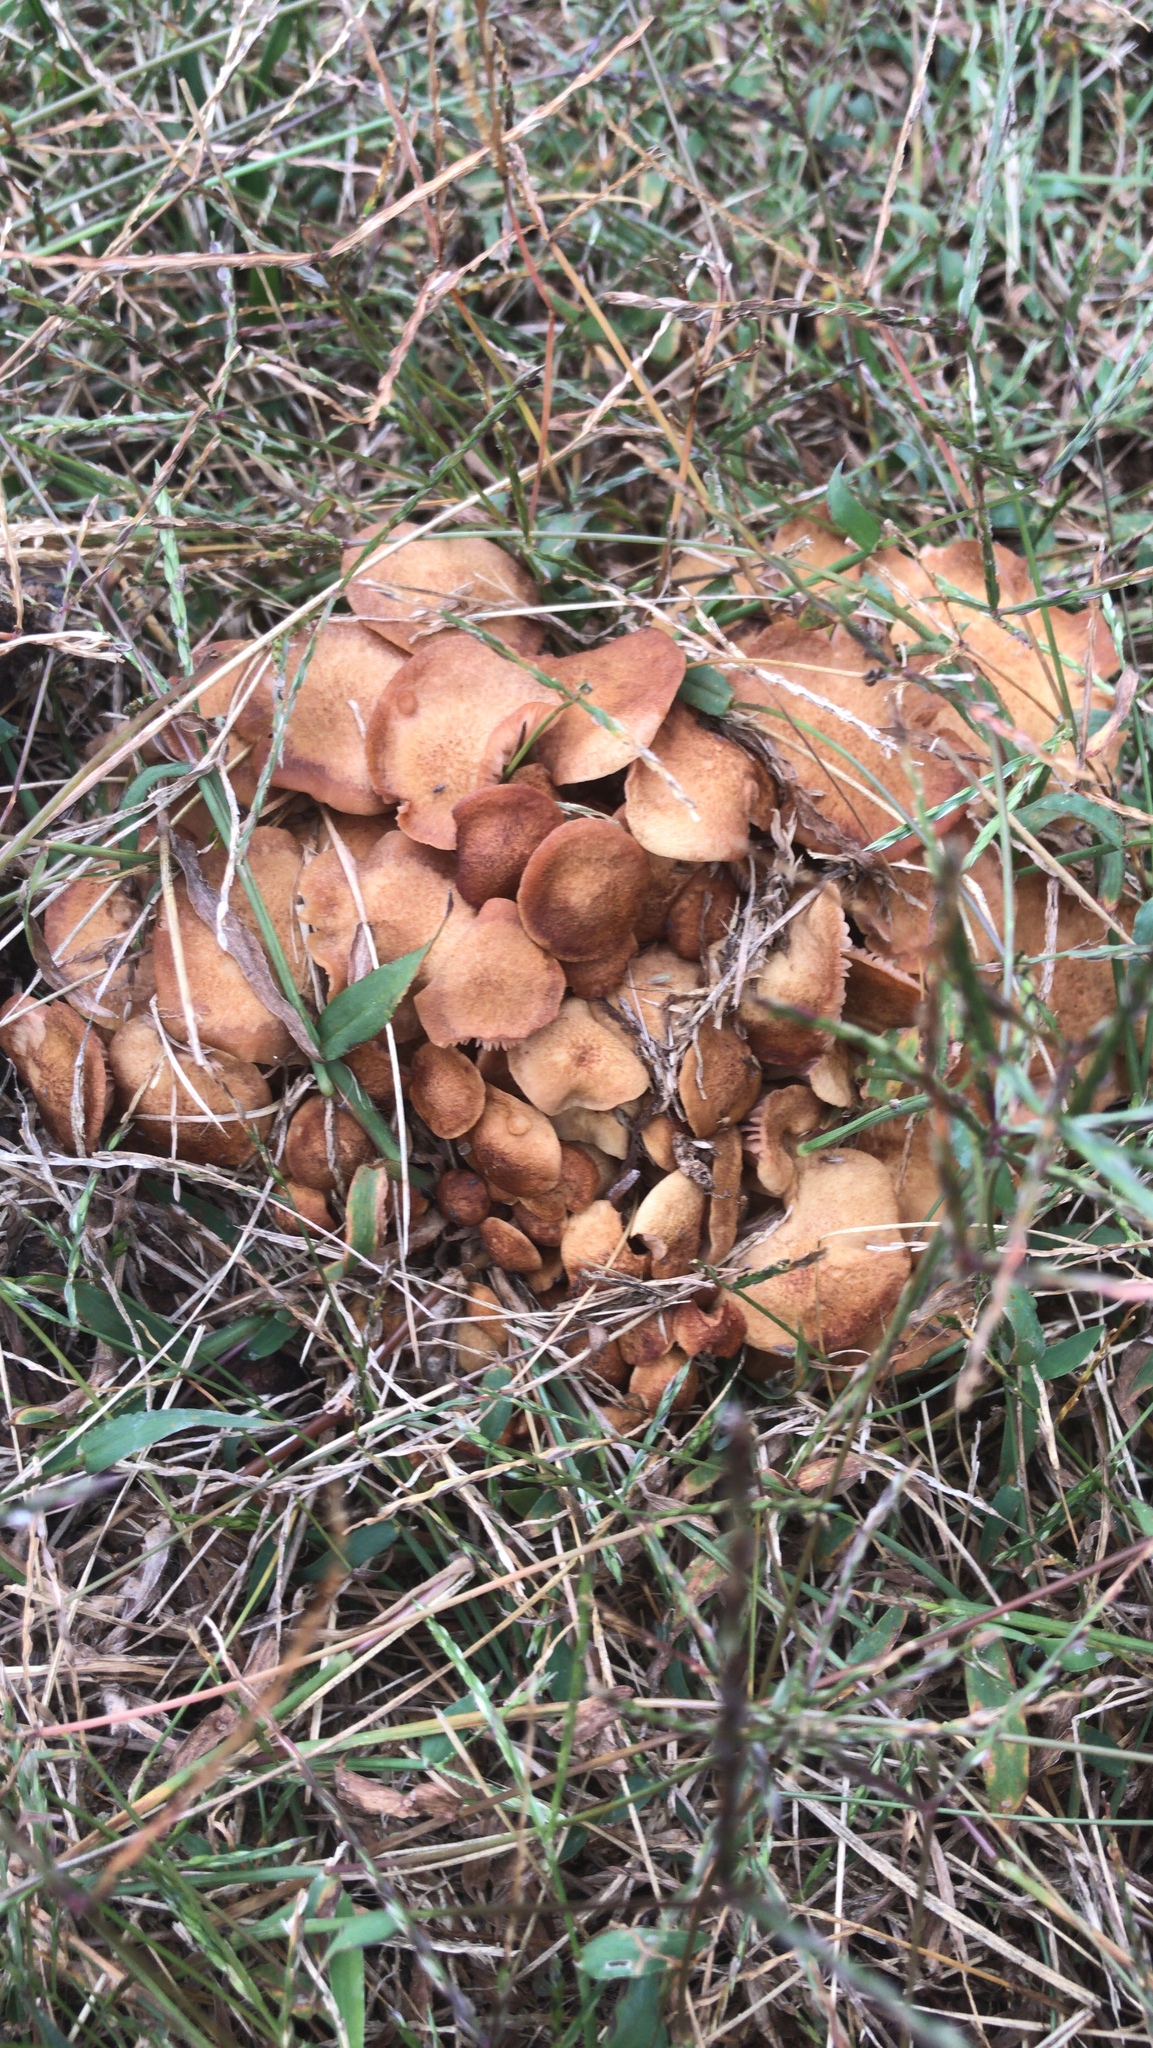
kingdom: Fungi
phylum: Basidiomycota
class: Agaricomycetes
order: Agaricales
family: Physalacriaceae
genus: Desarmillaria
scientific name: Desarmillaria caespitosa
